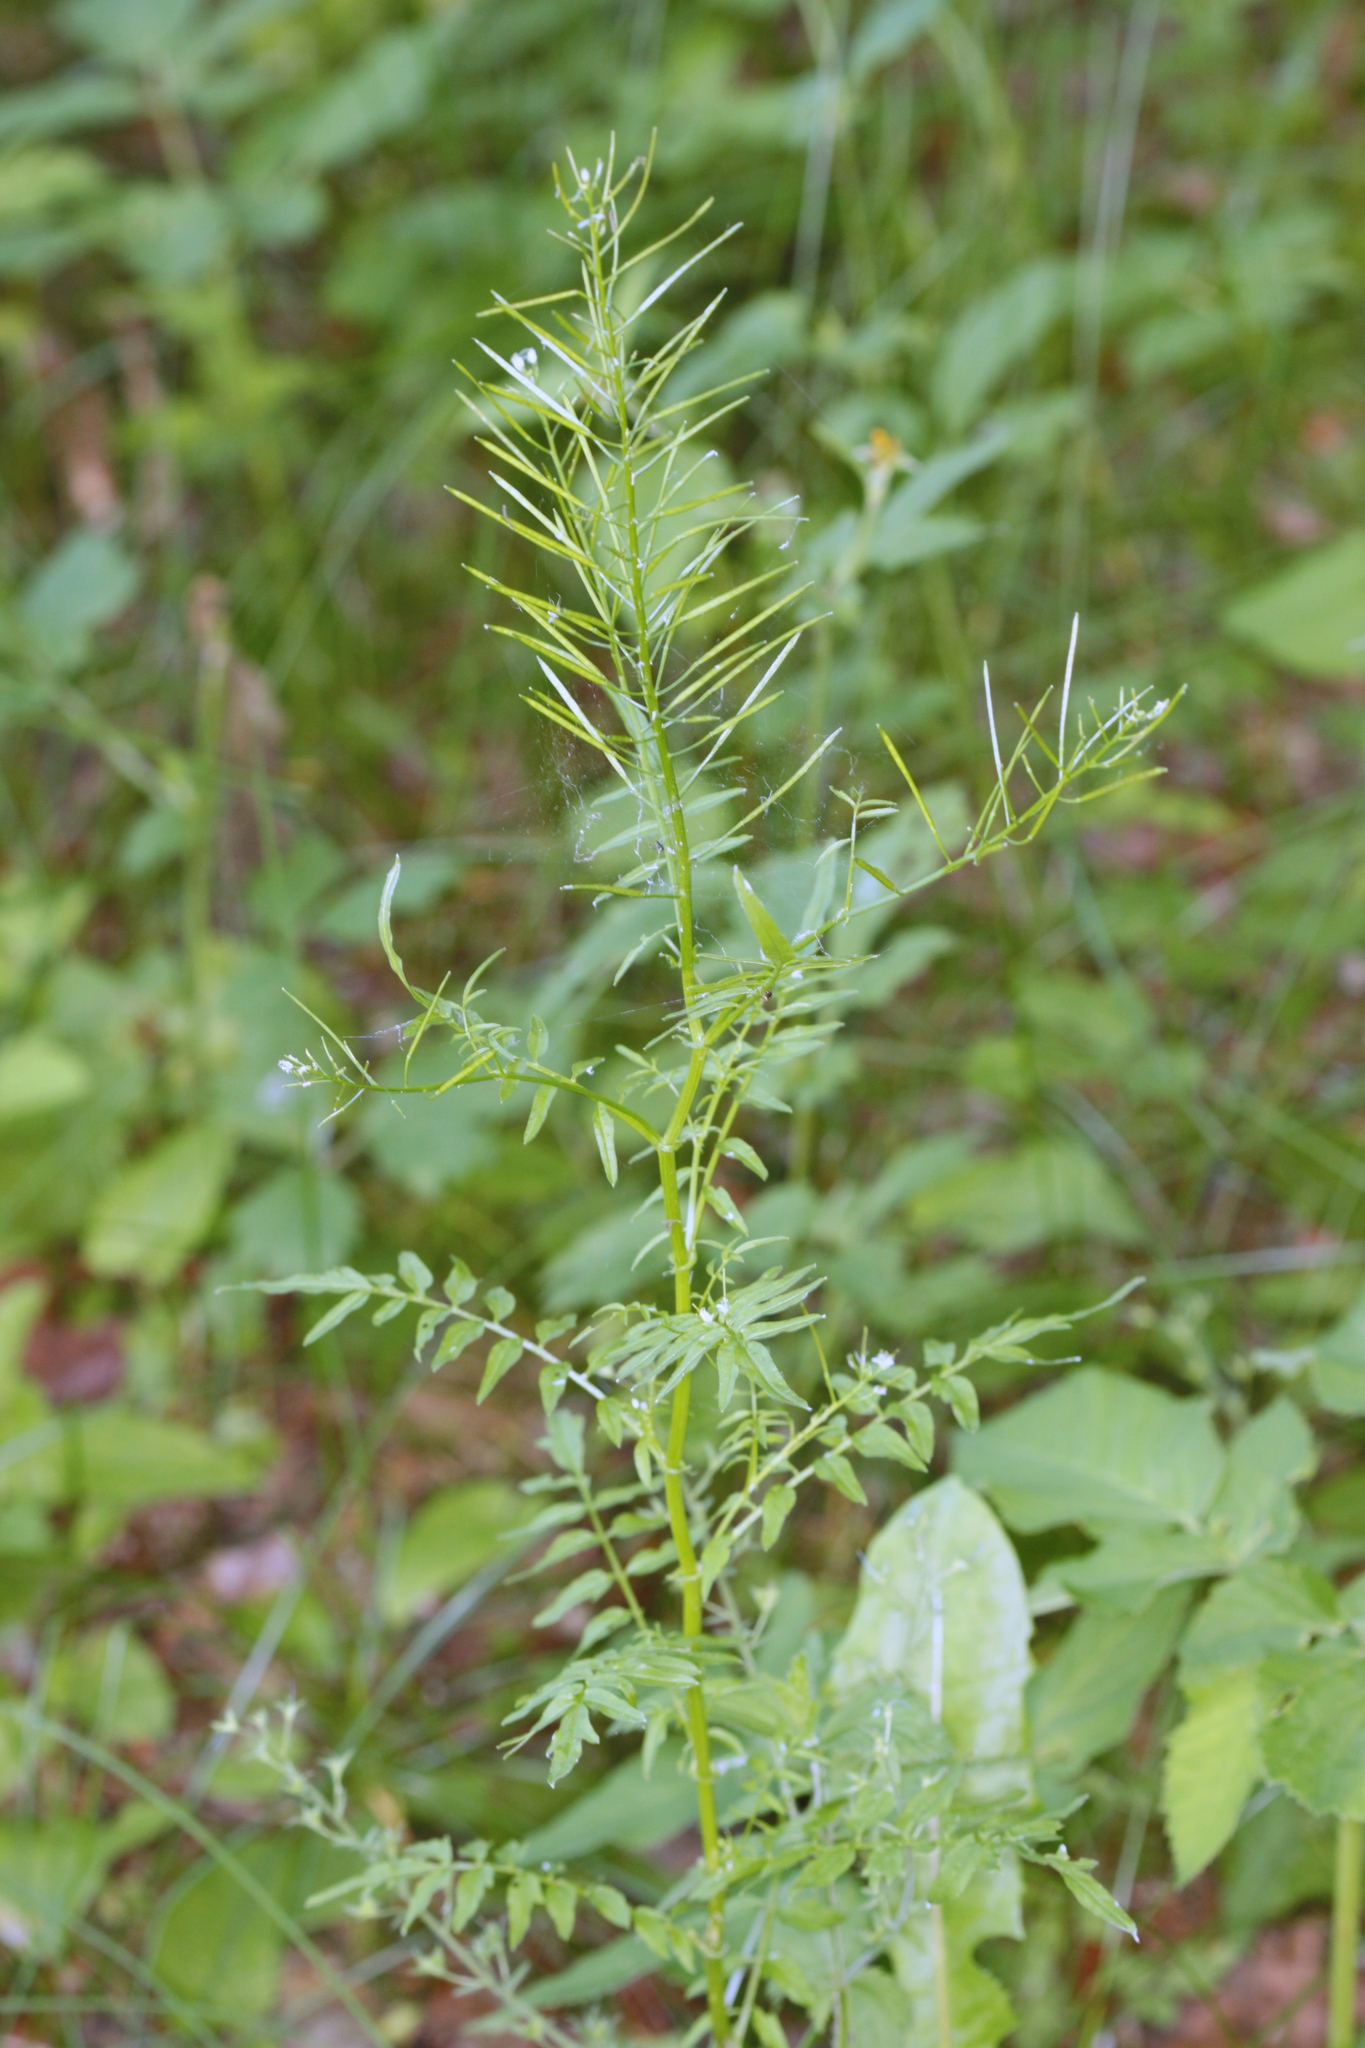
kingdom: Plantae
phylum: Tracheophyta
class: Magnoliopsida
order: Brassicales
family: Brassicaceae
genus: Cardamine
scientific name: Cardamine impatiens
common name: Narrow-leaved bitter-cress
